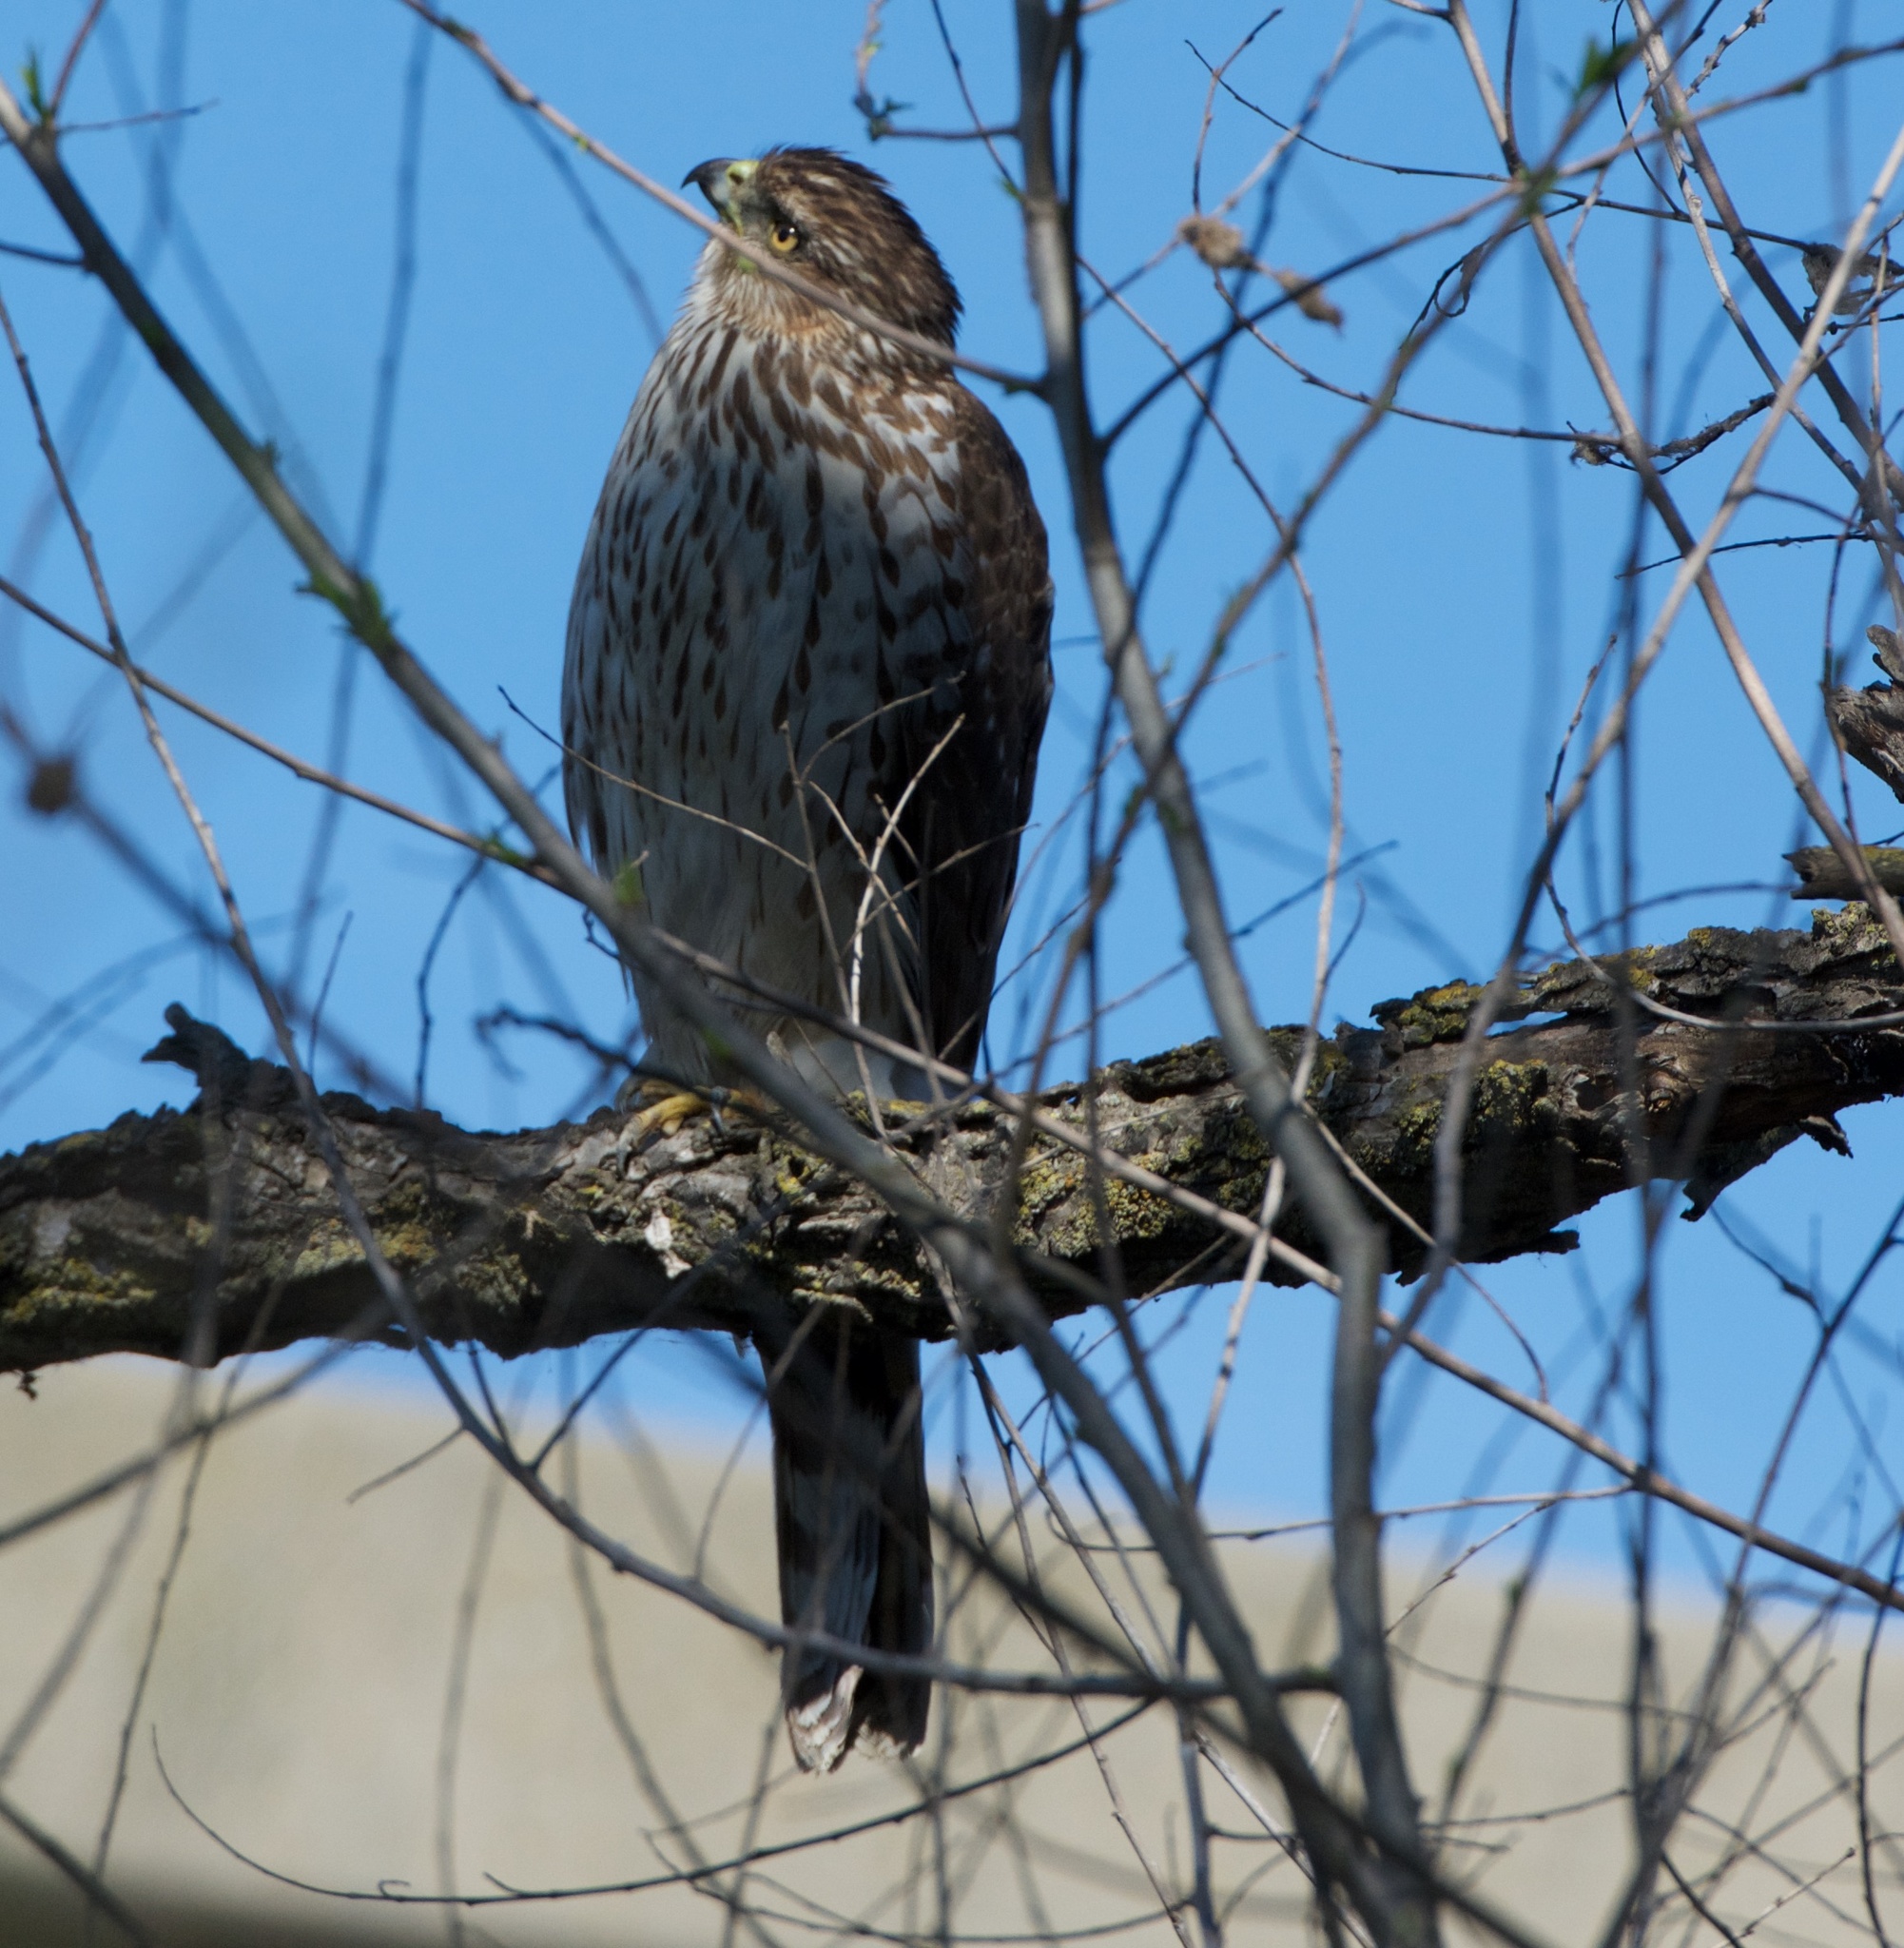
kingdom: Animalia
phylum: Chordata
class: Aves
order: Accipitriformes
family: Accipitridae
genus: Accipiter
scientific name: Accipiter cooperii
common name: Cooper's hawk
